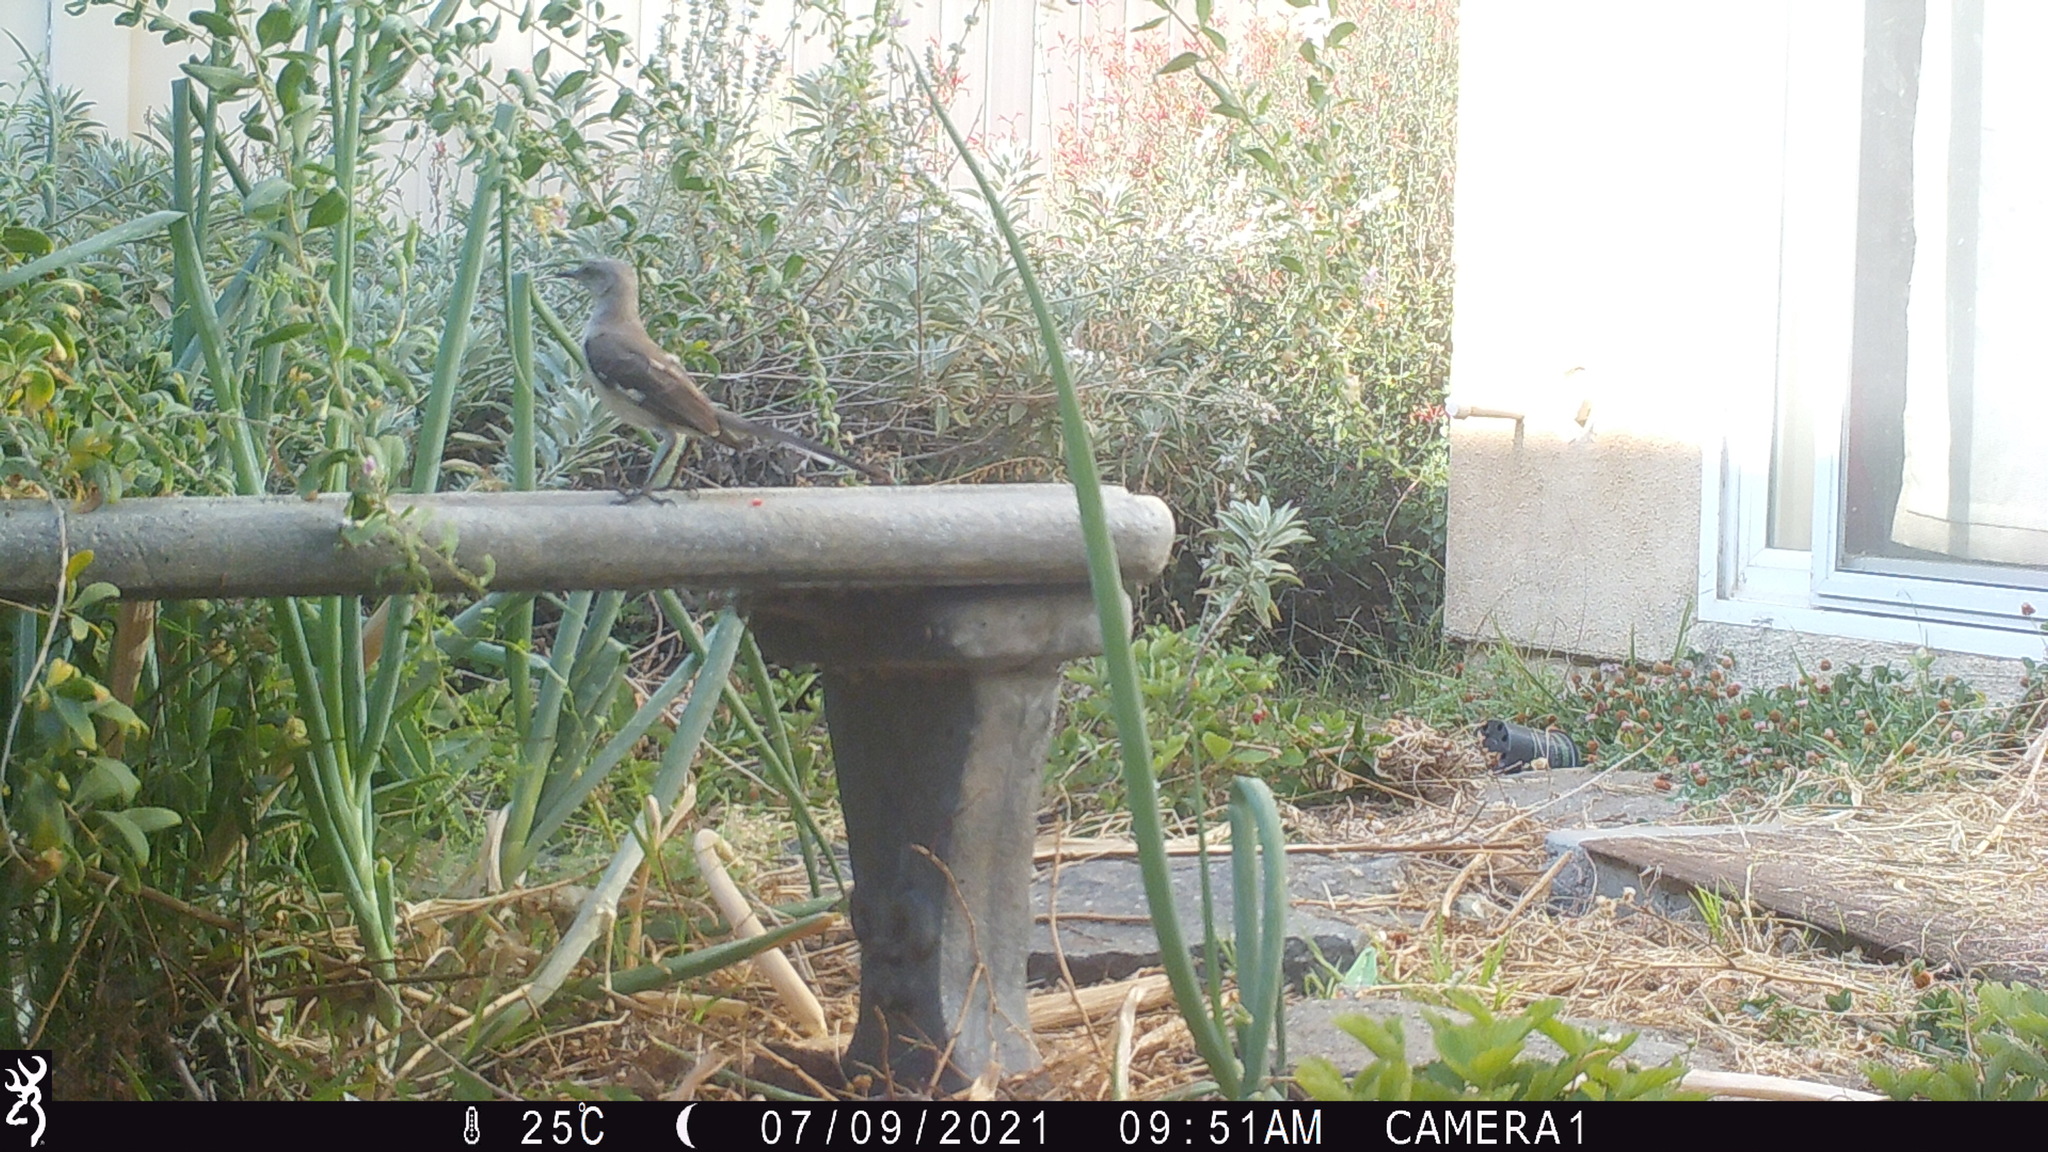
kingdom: Animalia
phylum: Chordata
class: Aves
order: Passeriformes
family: Mimidae
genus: Mimus
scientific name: Mimus polyglottos
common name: Northern mockingbird
